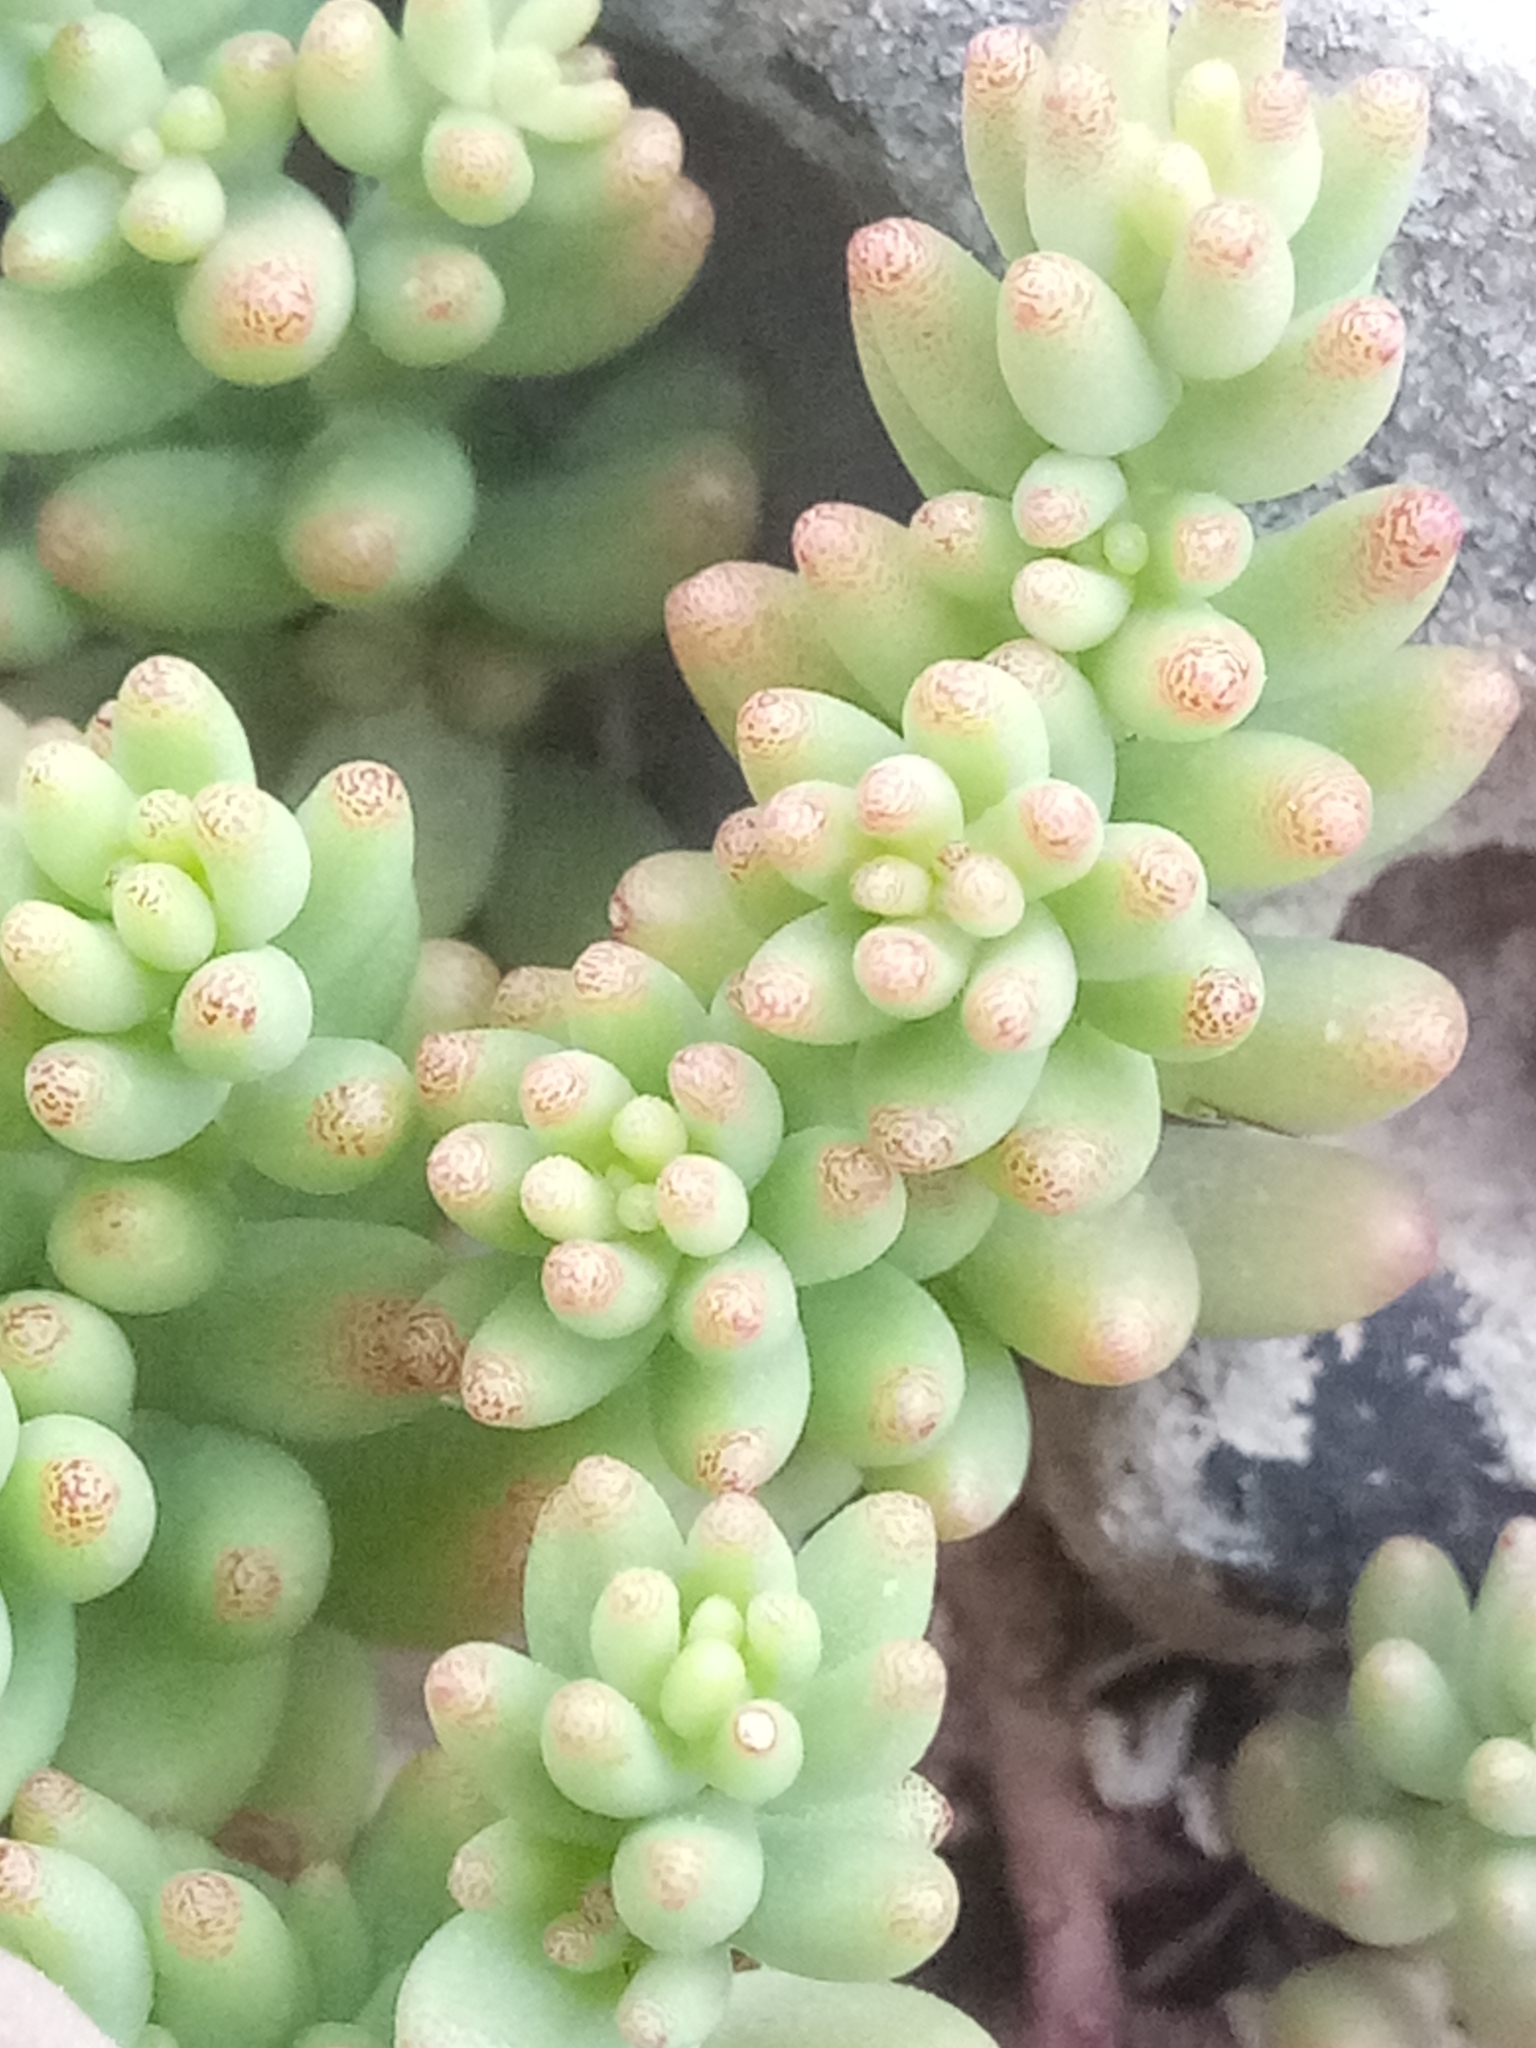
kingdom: Plantae
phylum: Tracheophyta
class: Magnoliopsida
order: Saxifragales
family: Crassulaceae
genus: Sedum
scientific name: Sedum album
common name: White stonecrop
